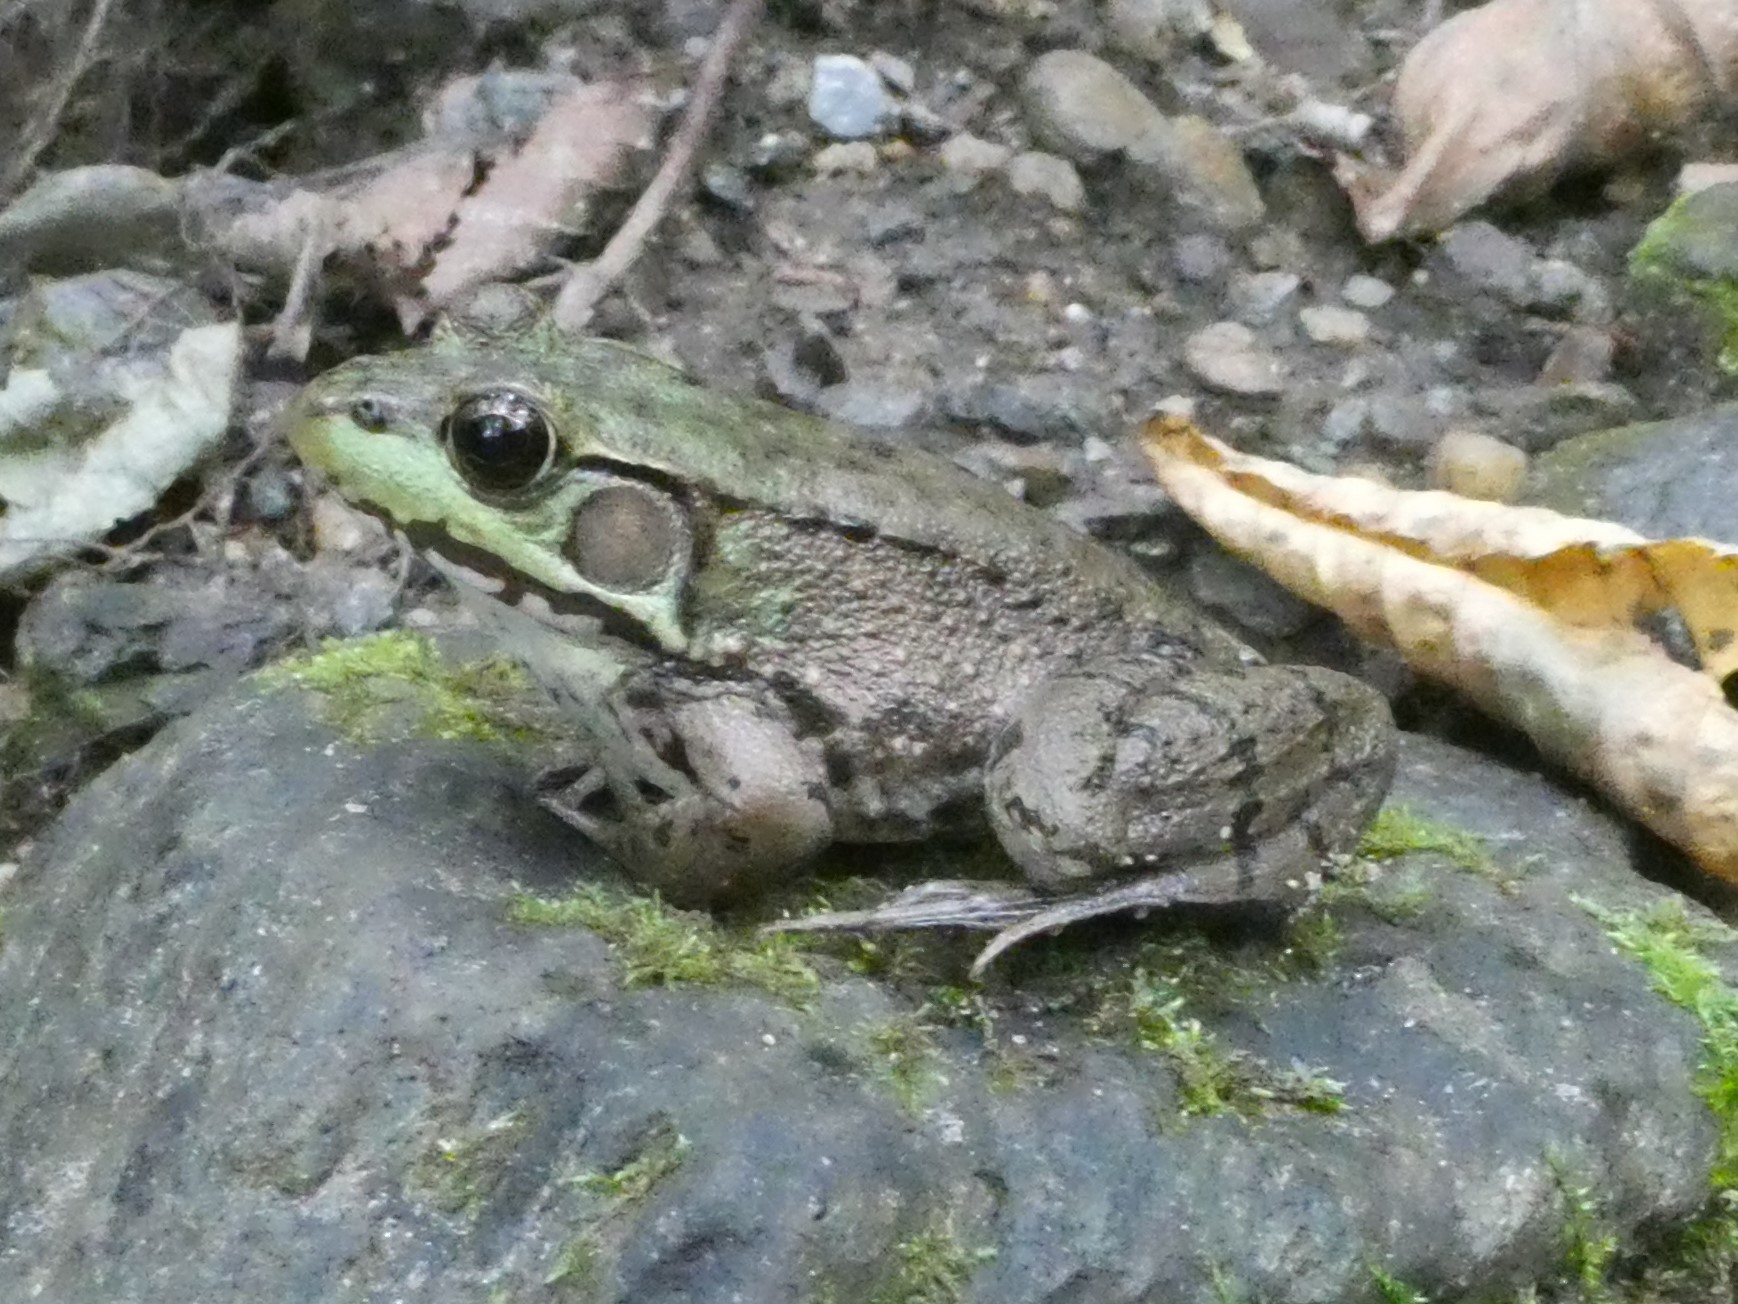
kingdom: Animalia
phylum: Chordata
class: Amphibia
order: Anura
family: Ranidae
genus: Lithobates
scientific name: Lithobates clamitans
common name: Green frog
